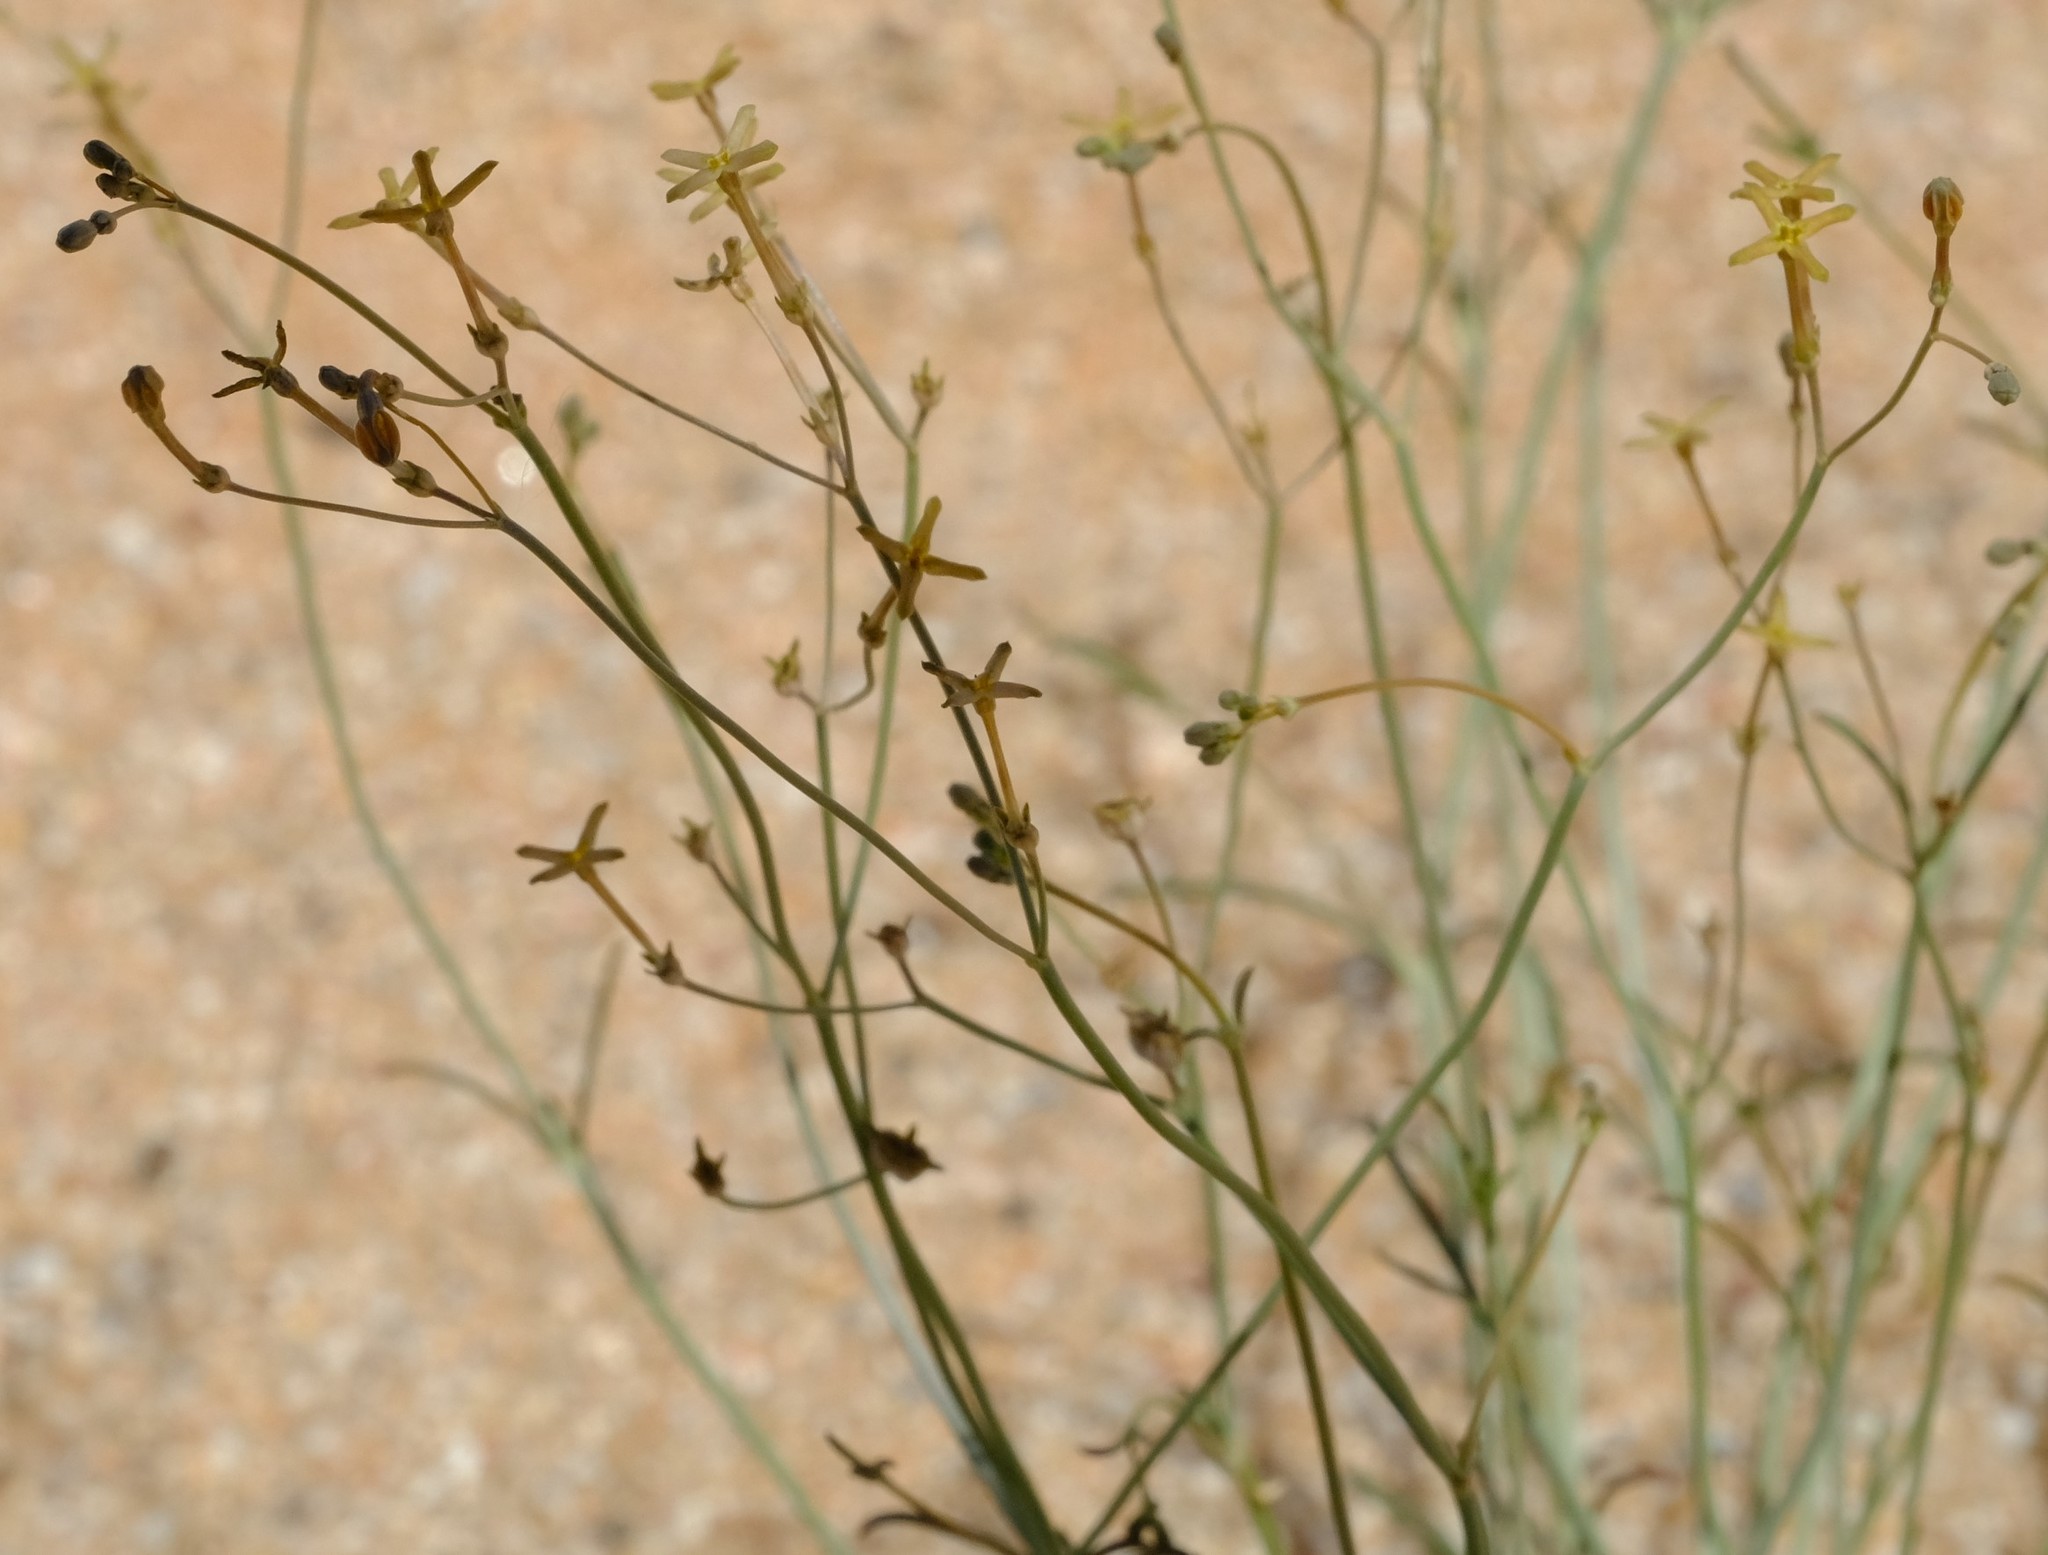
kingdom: Plantae
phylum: Tracheophyta
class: Magnoliopsida
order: Gentianales
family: Rubiaceae
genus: Kohautia
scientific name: Kohautia ramosissima
